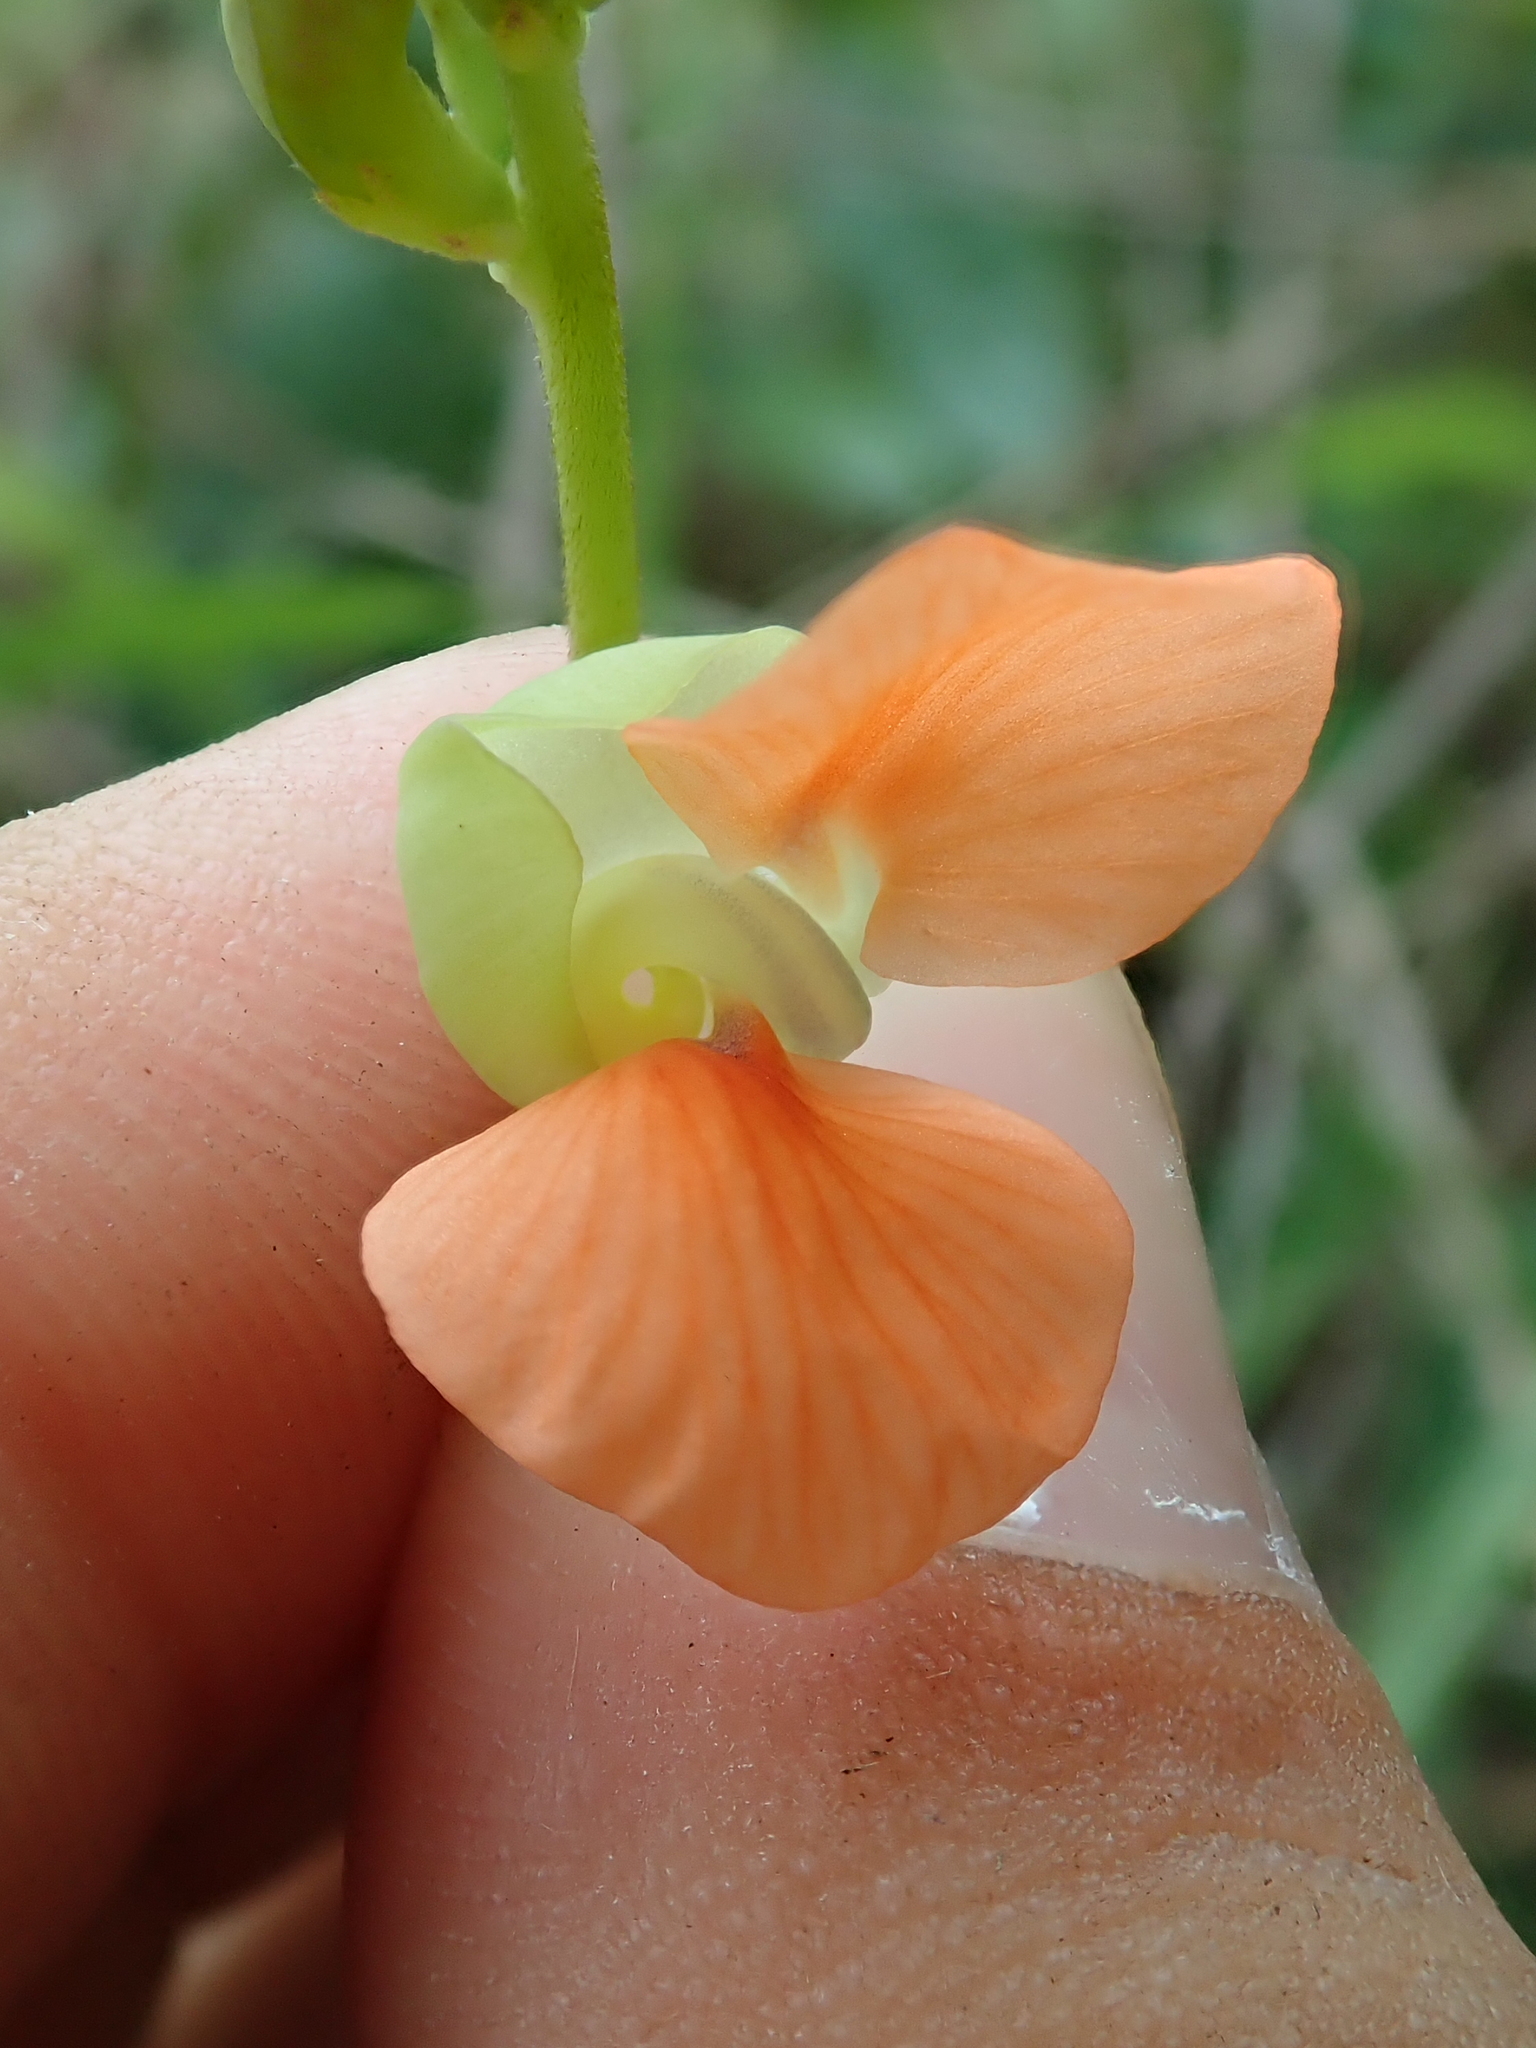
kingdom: Plantae
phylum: Tracheophyta
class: Magnoliopsida
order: Fabales
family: Fabaceae
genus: Macroptilium
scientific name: Macroptilium erythroloma
